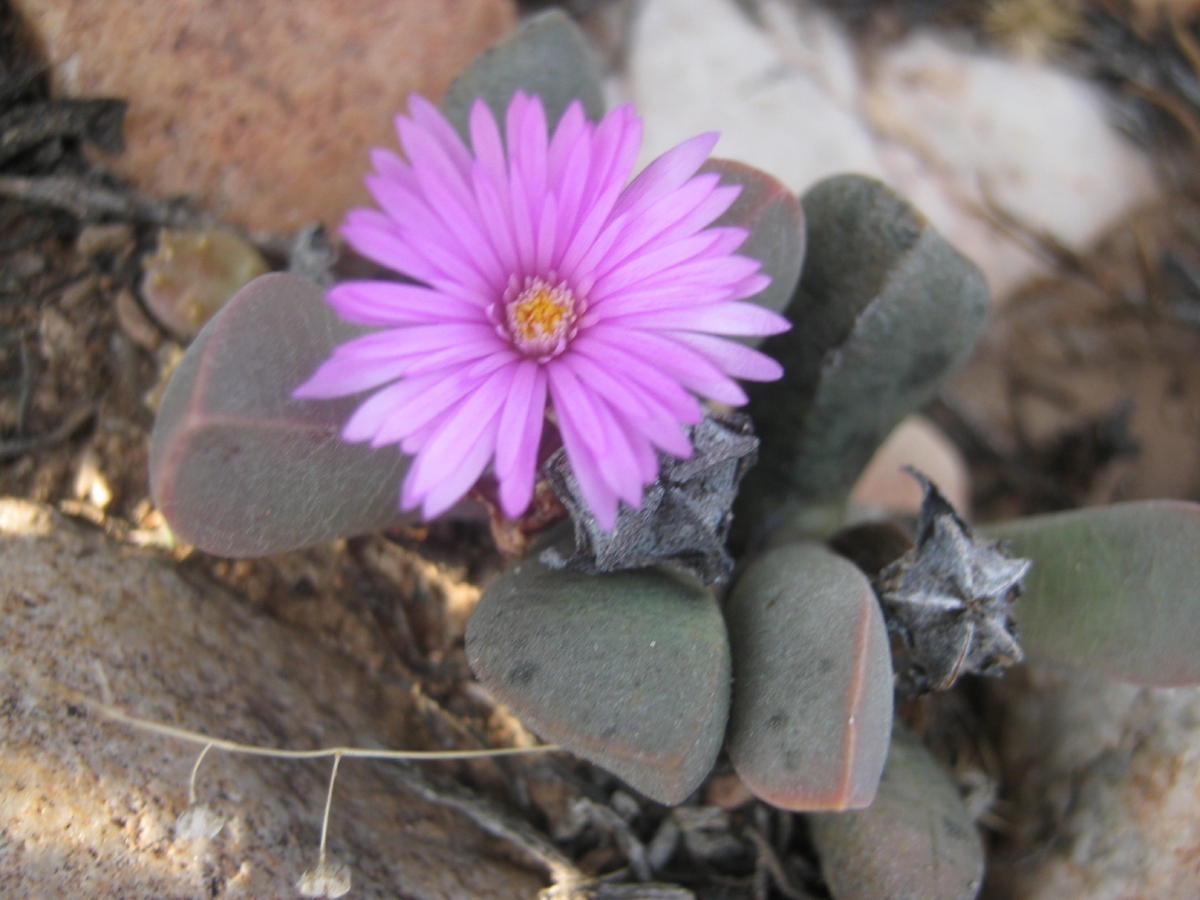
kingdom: Plantae
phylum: Tracheophyta
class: Magnoliopsida
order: Caryophyllales
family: Aizoaceae
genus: Cerochlamys
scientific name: Cerochlamys pachyphylla
